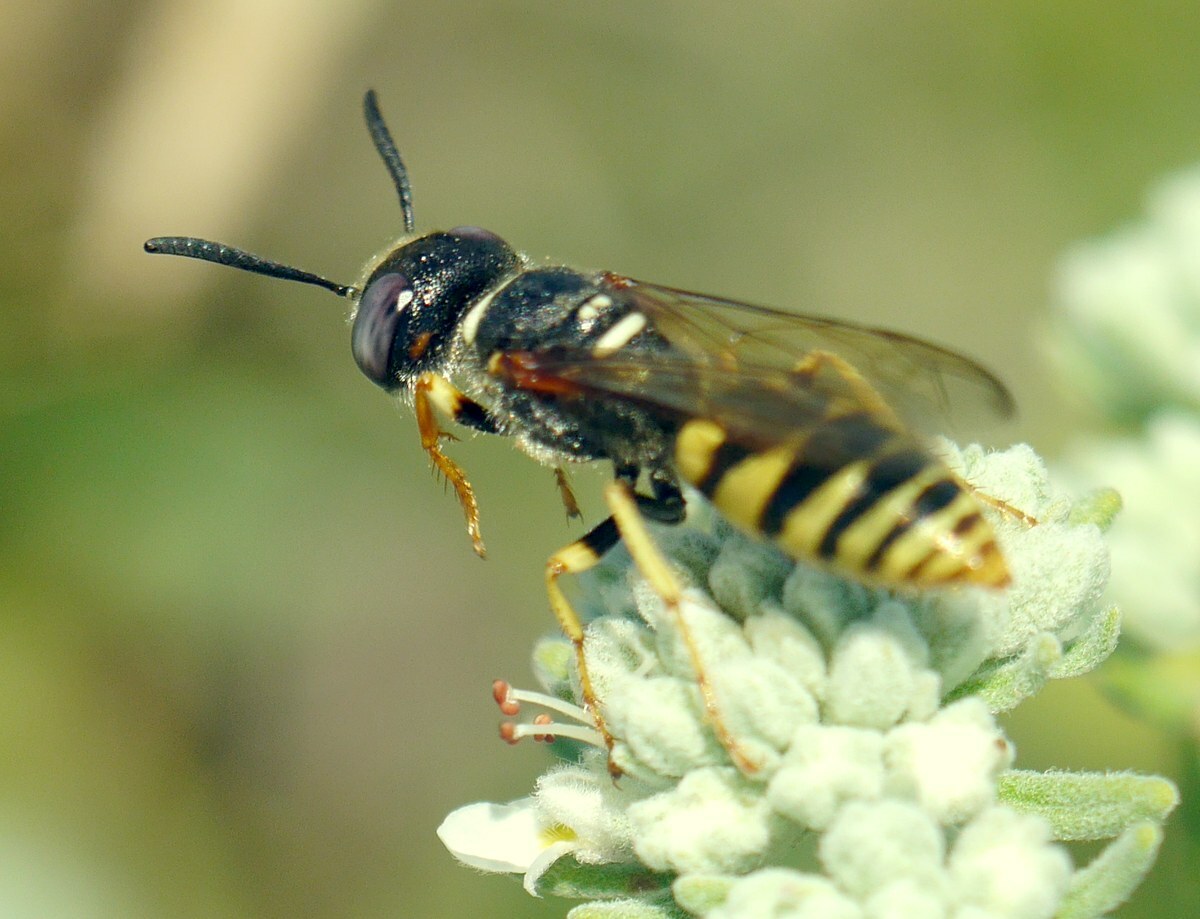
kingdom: Animalia
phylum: Arthropoda
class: Insecta
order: Hymenoptera
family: Crabronidae
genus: Philanthus
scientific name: Philanthus triangulum
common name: Bee wolf
